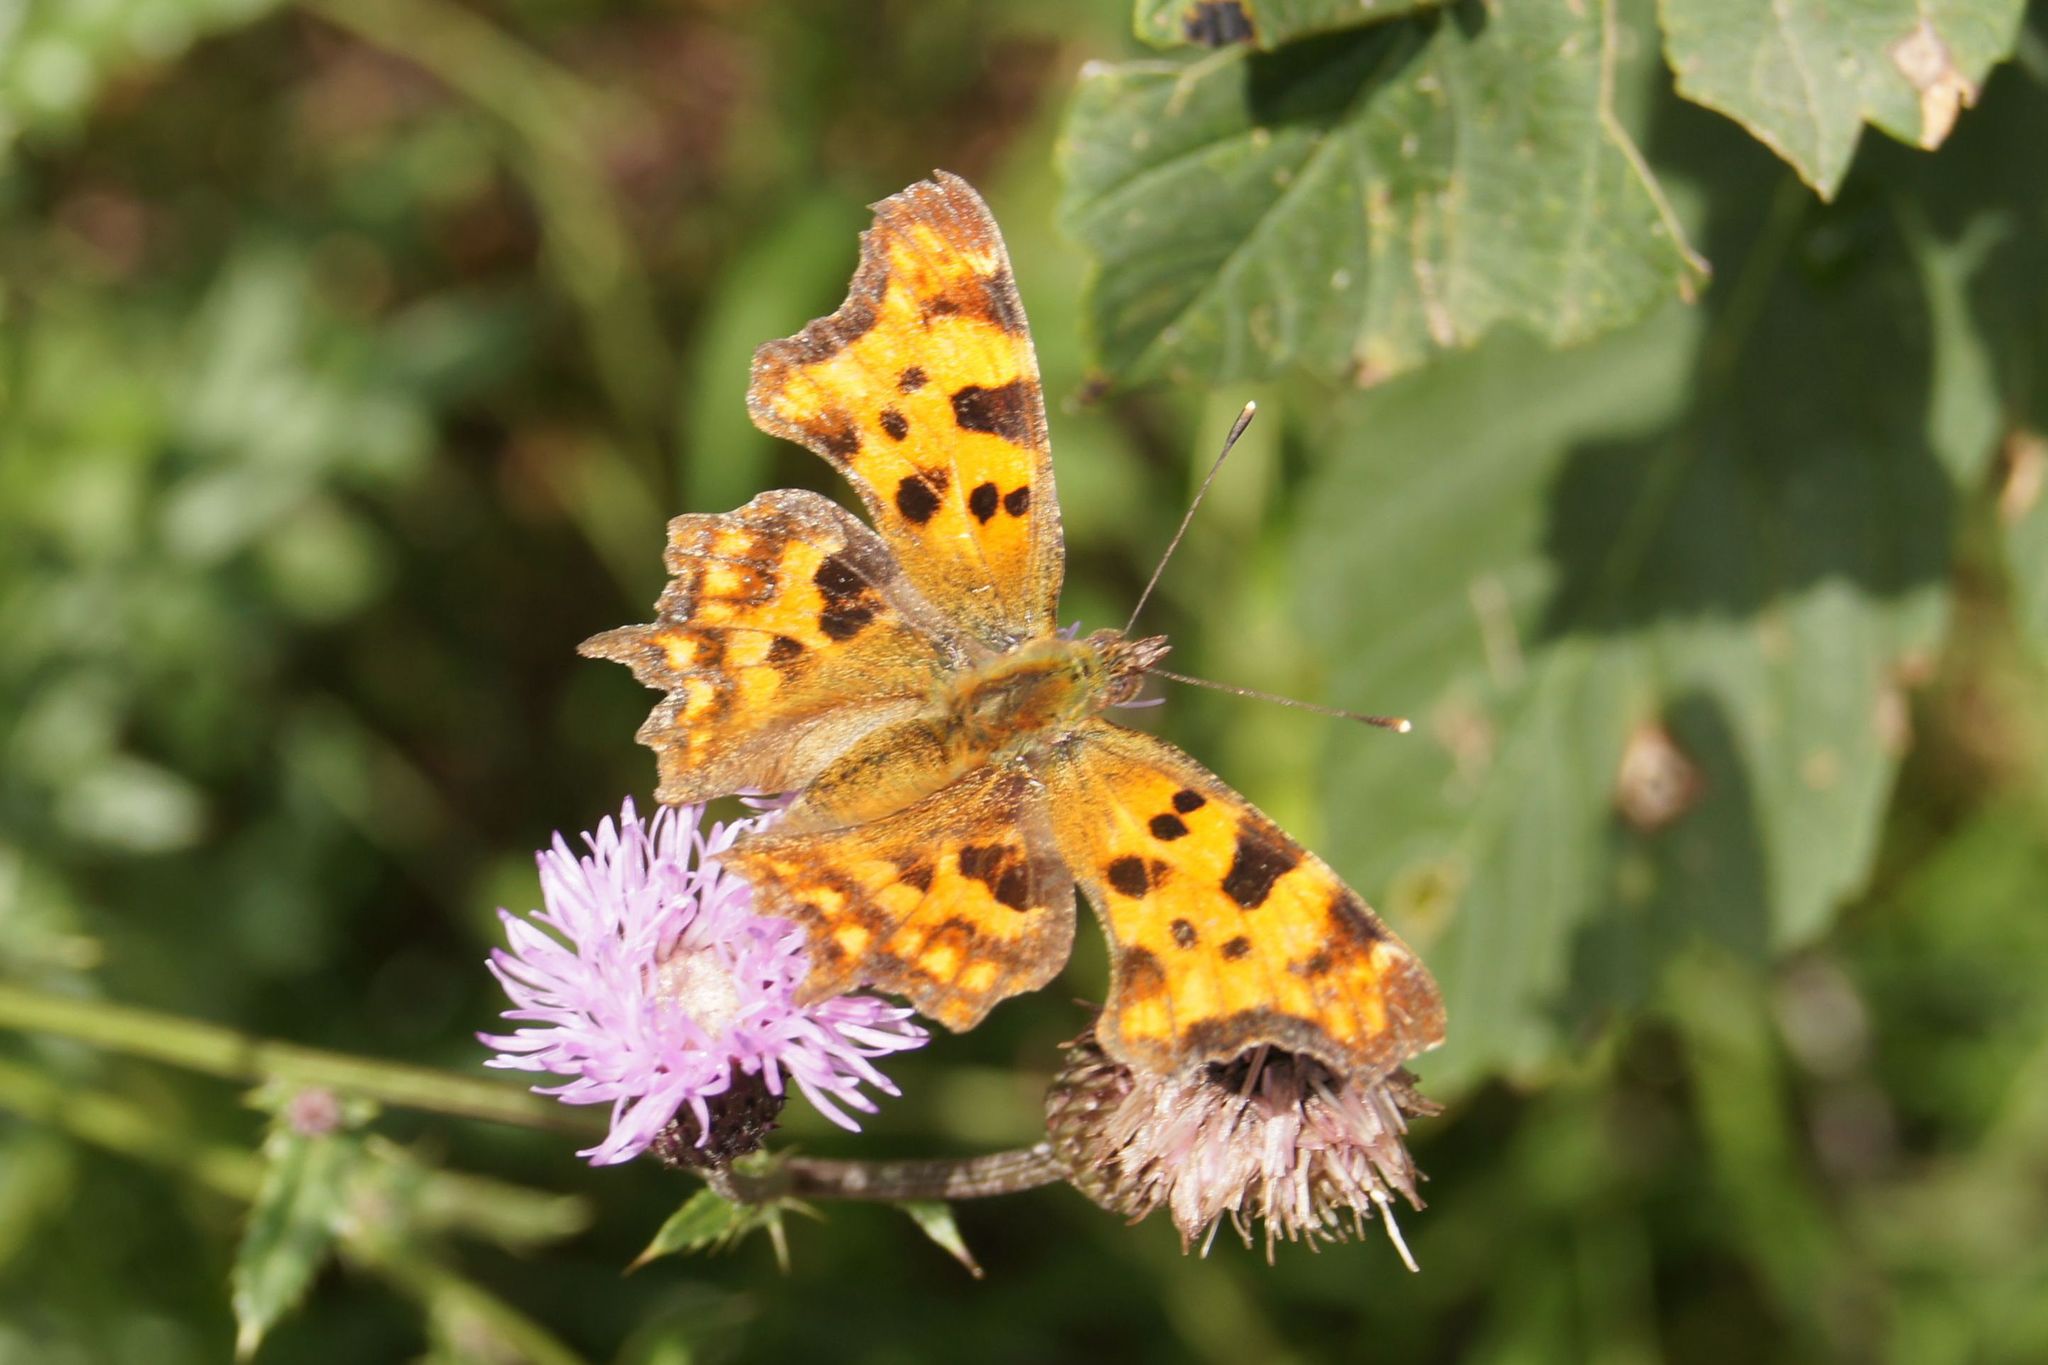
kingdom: Animalia
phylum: Arthropoda
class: Insecta
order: Lepidoptera
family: Nymphalidae
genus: Polygonia
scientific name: Polygonia c-album
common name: Comma
